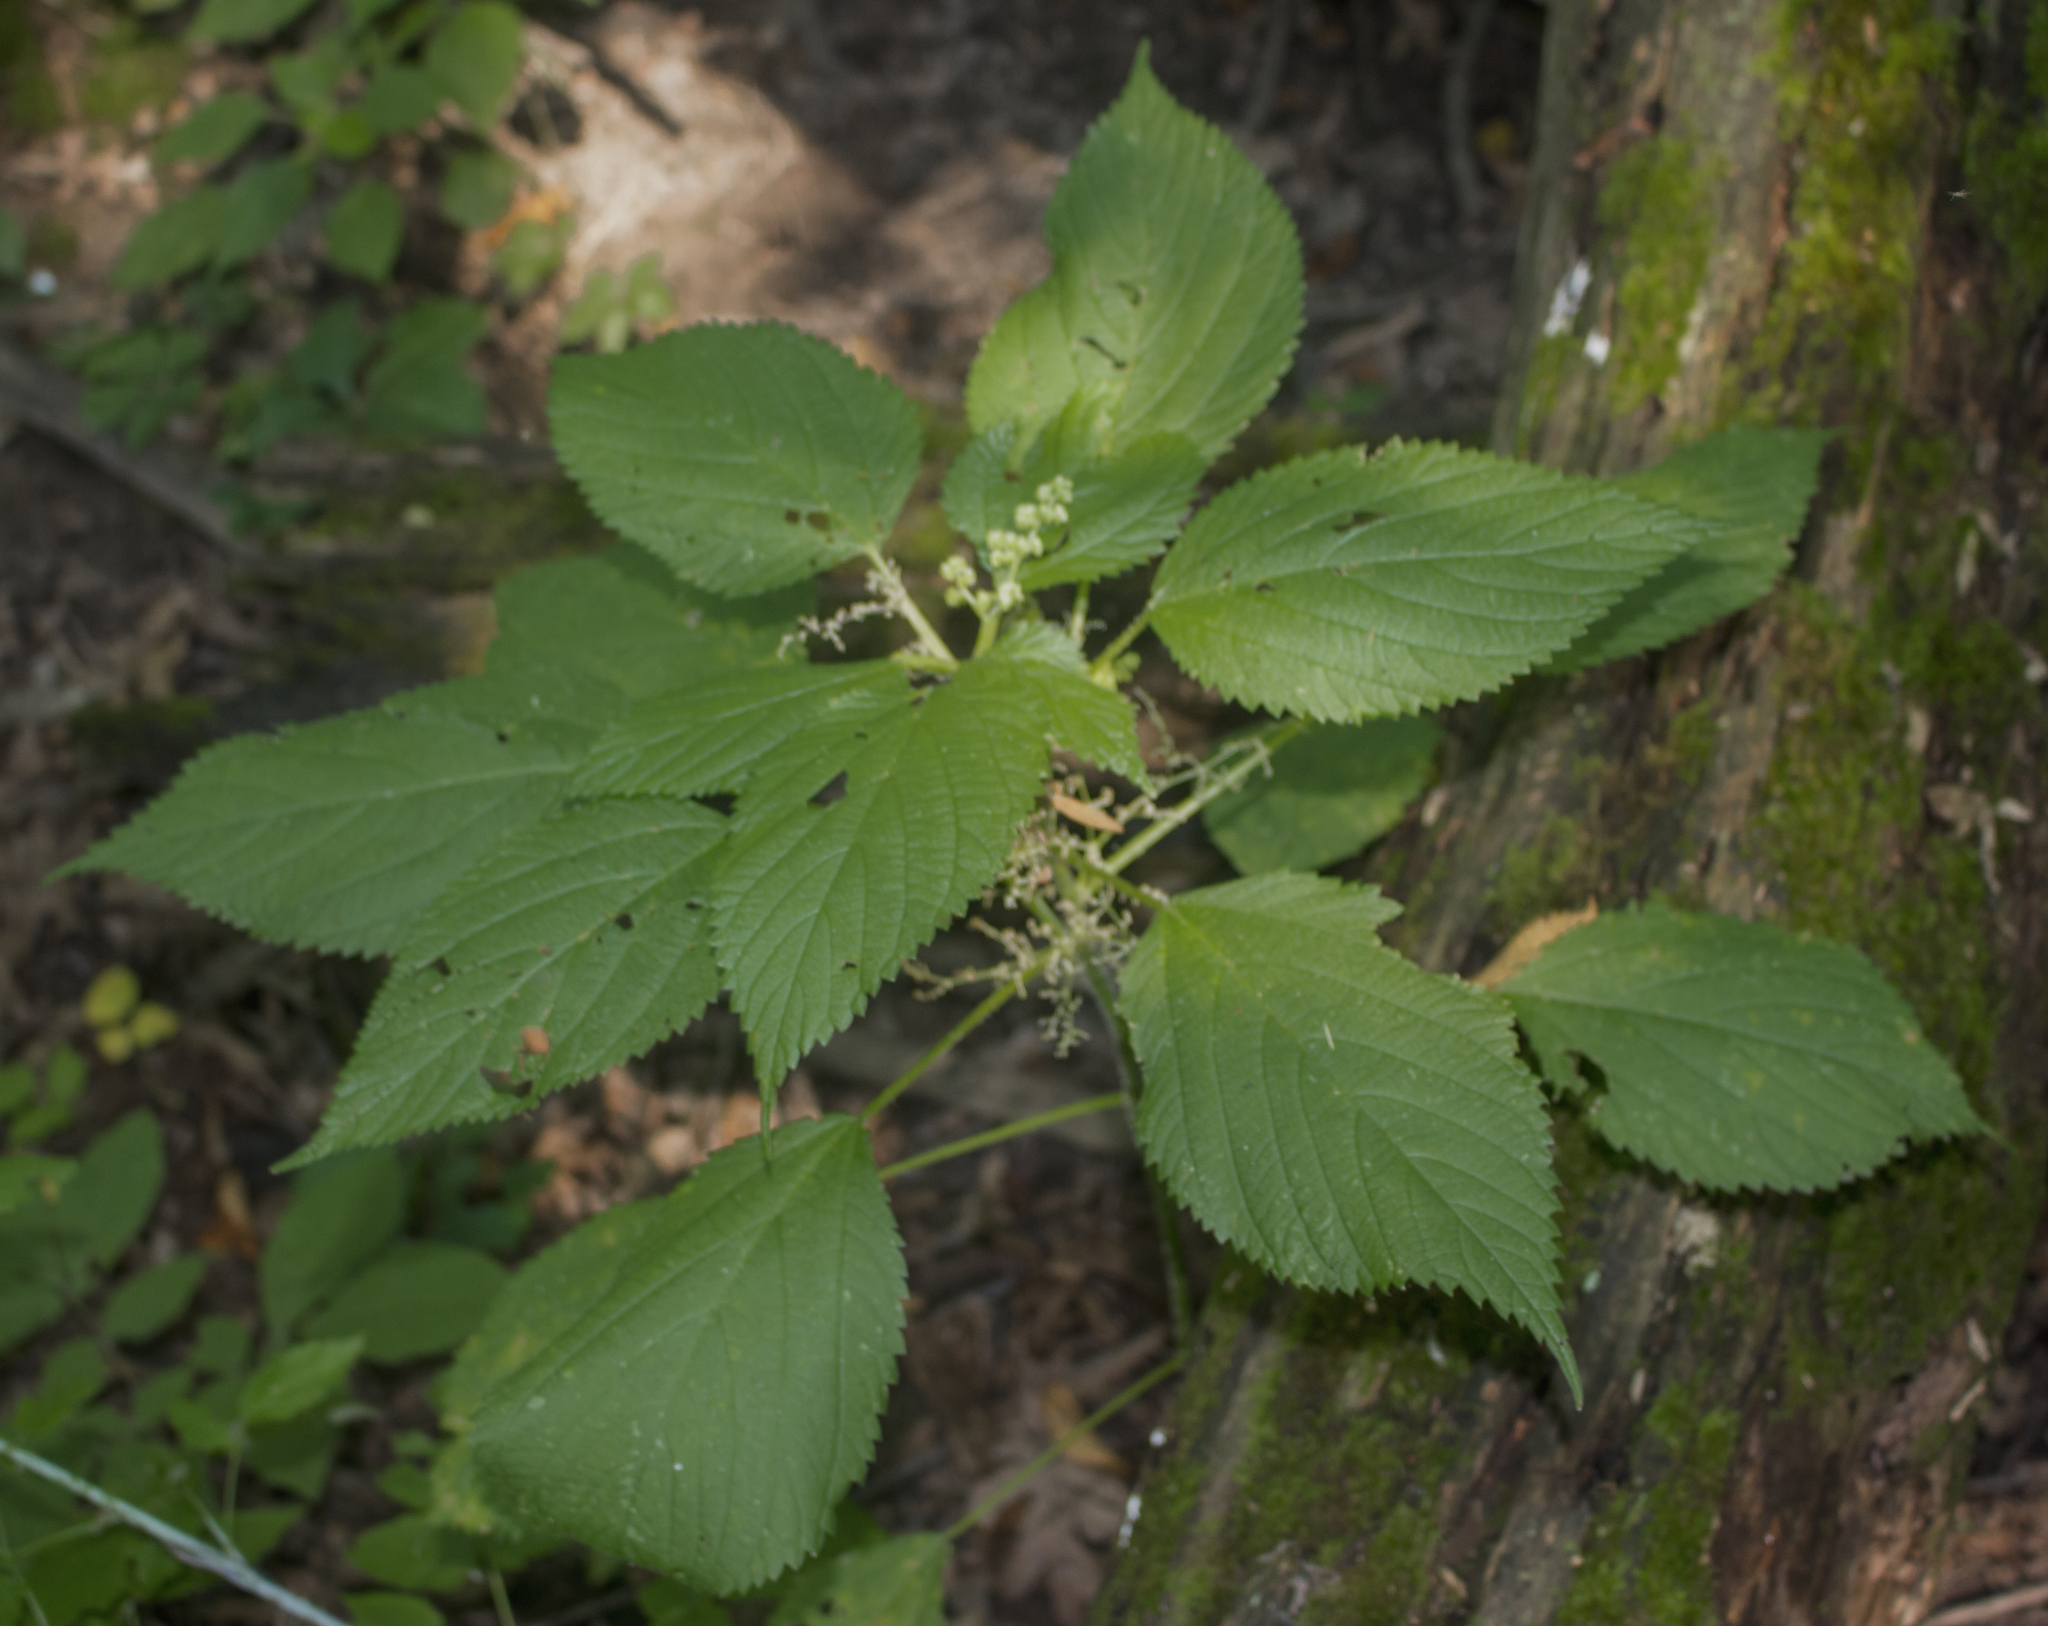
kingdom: Plantae
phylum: Tracheophyta
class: Magnoliopsida
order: Rosales
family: Urticaceae
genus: Laportea
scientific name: Laportea canadensis
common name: Canada nettle
